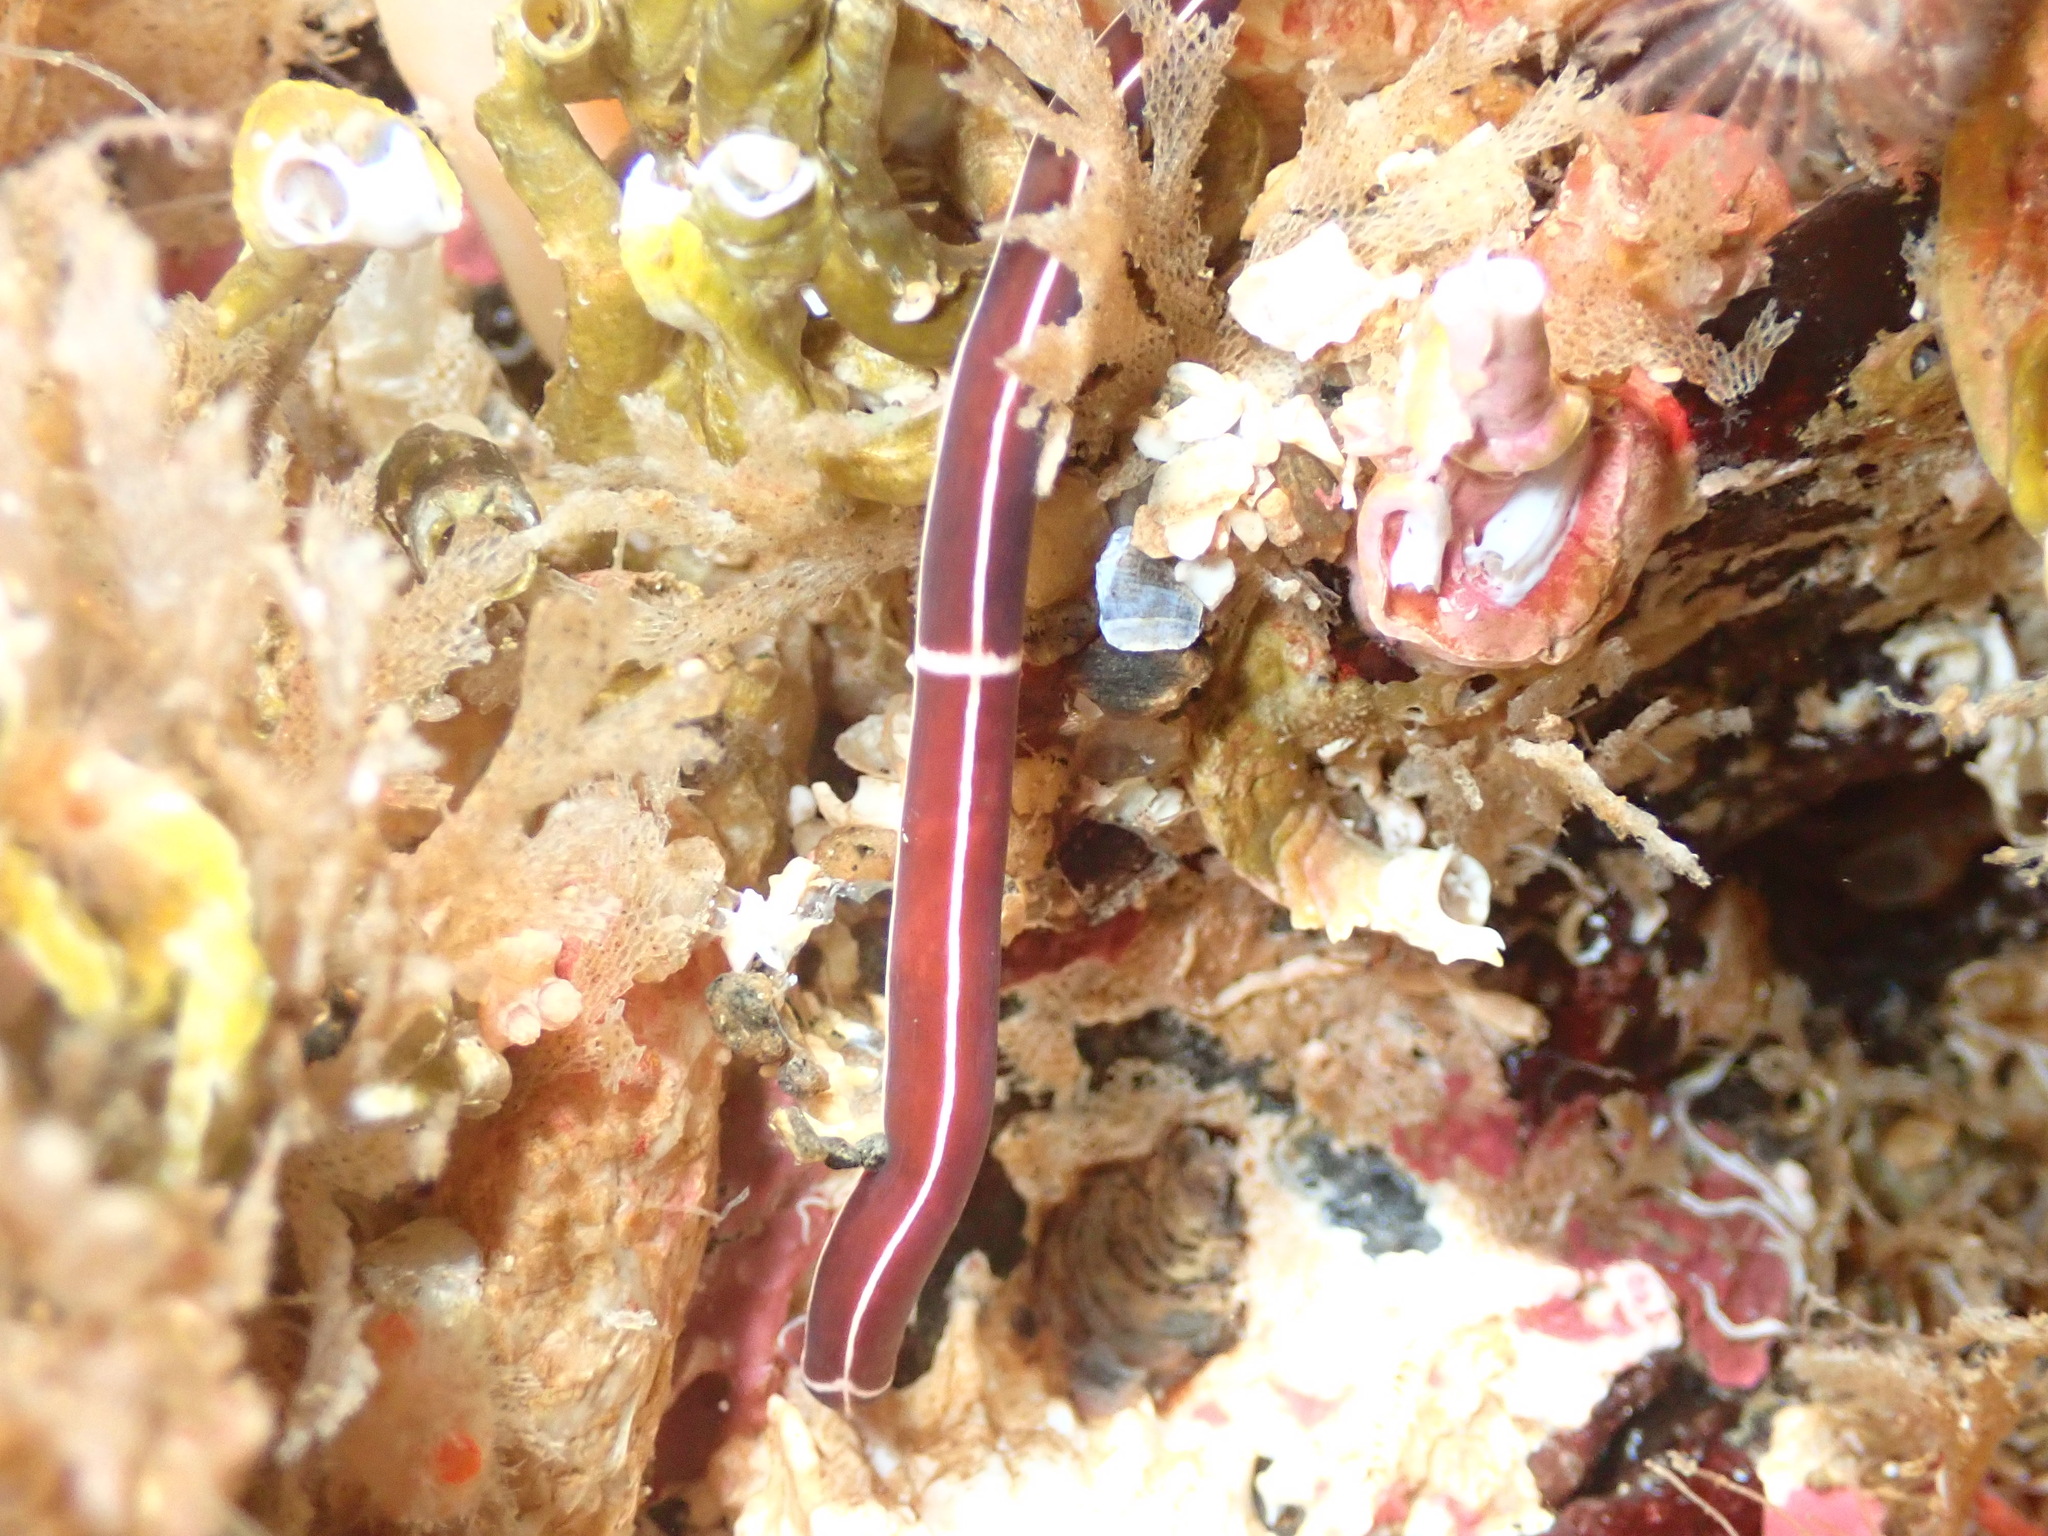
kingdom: Animalia
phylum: Nemertea
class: Palaeonemertea
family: Tubulanidae
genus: Tubulanus
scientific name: Tubulanus annulatus
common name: Football jersey worm
